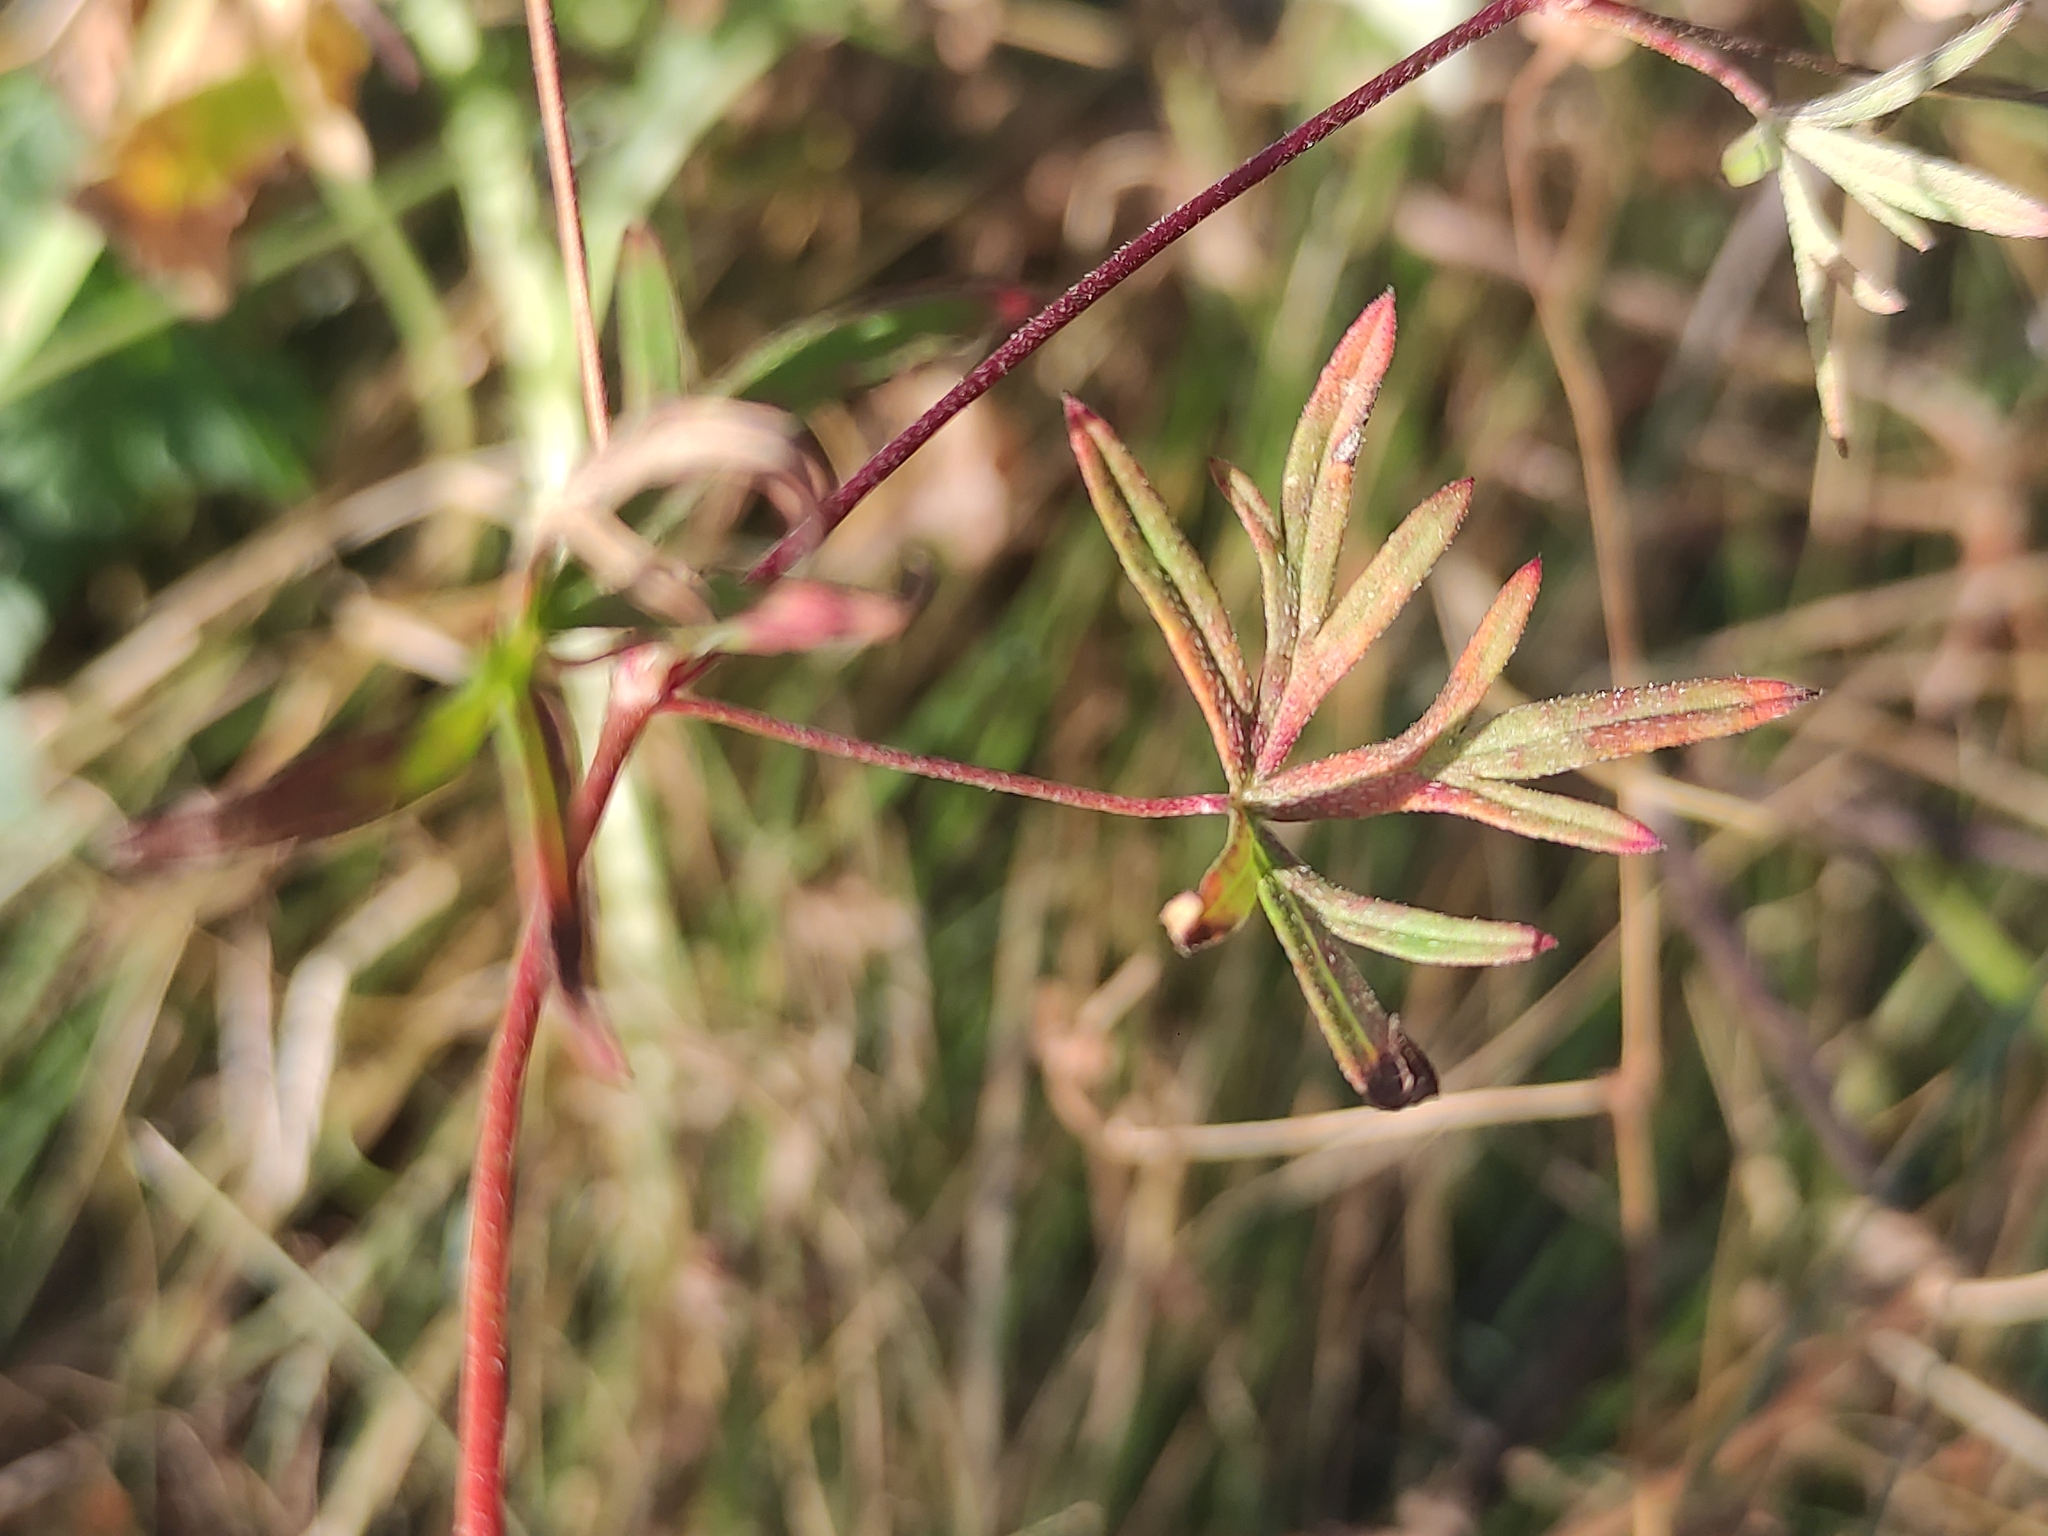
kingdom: Plantae
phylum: Tracheophyta
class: Magnoliopsida
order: Geraniales
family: Geraniaceae
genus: Geranium
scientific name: Geranium columbinum
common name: Long-stalked crane's-bill
